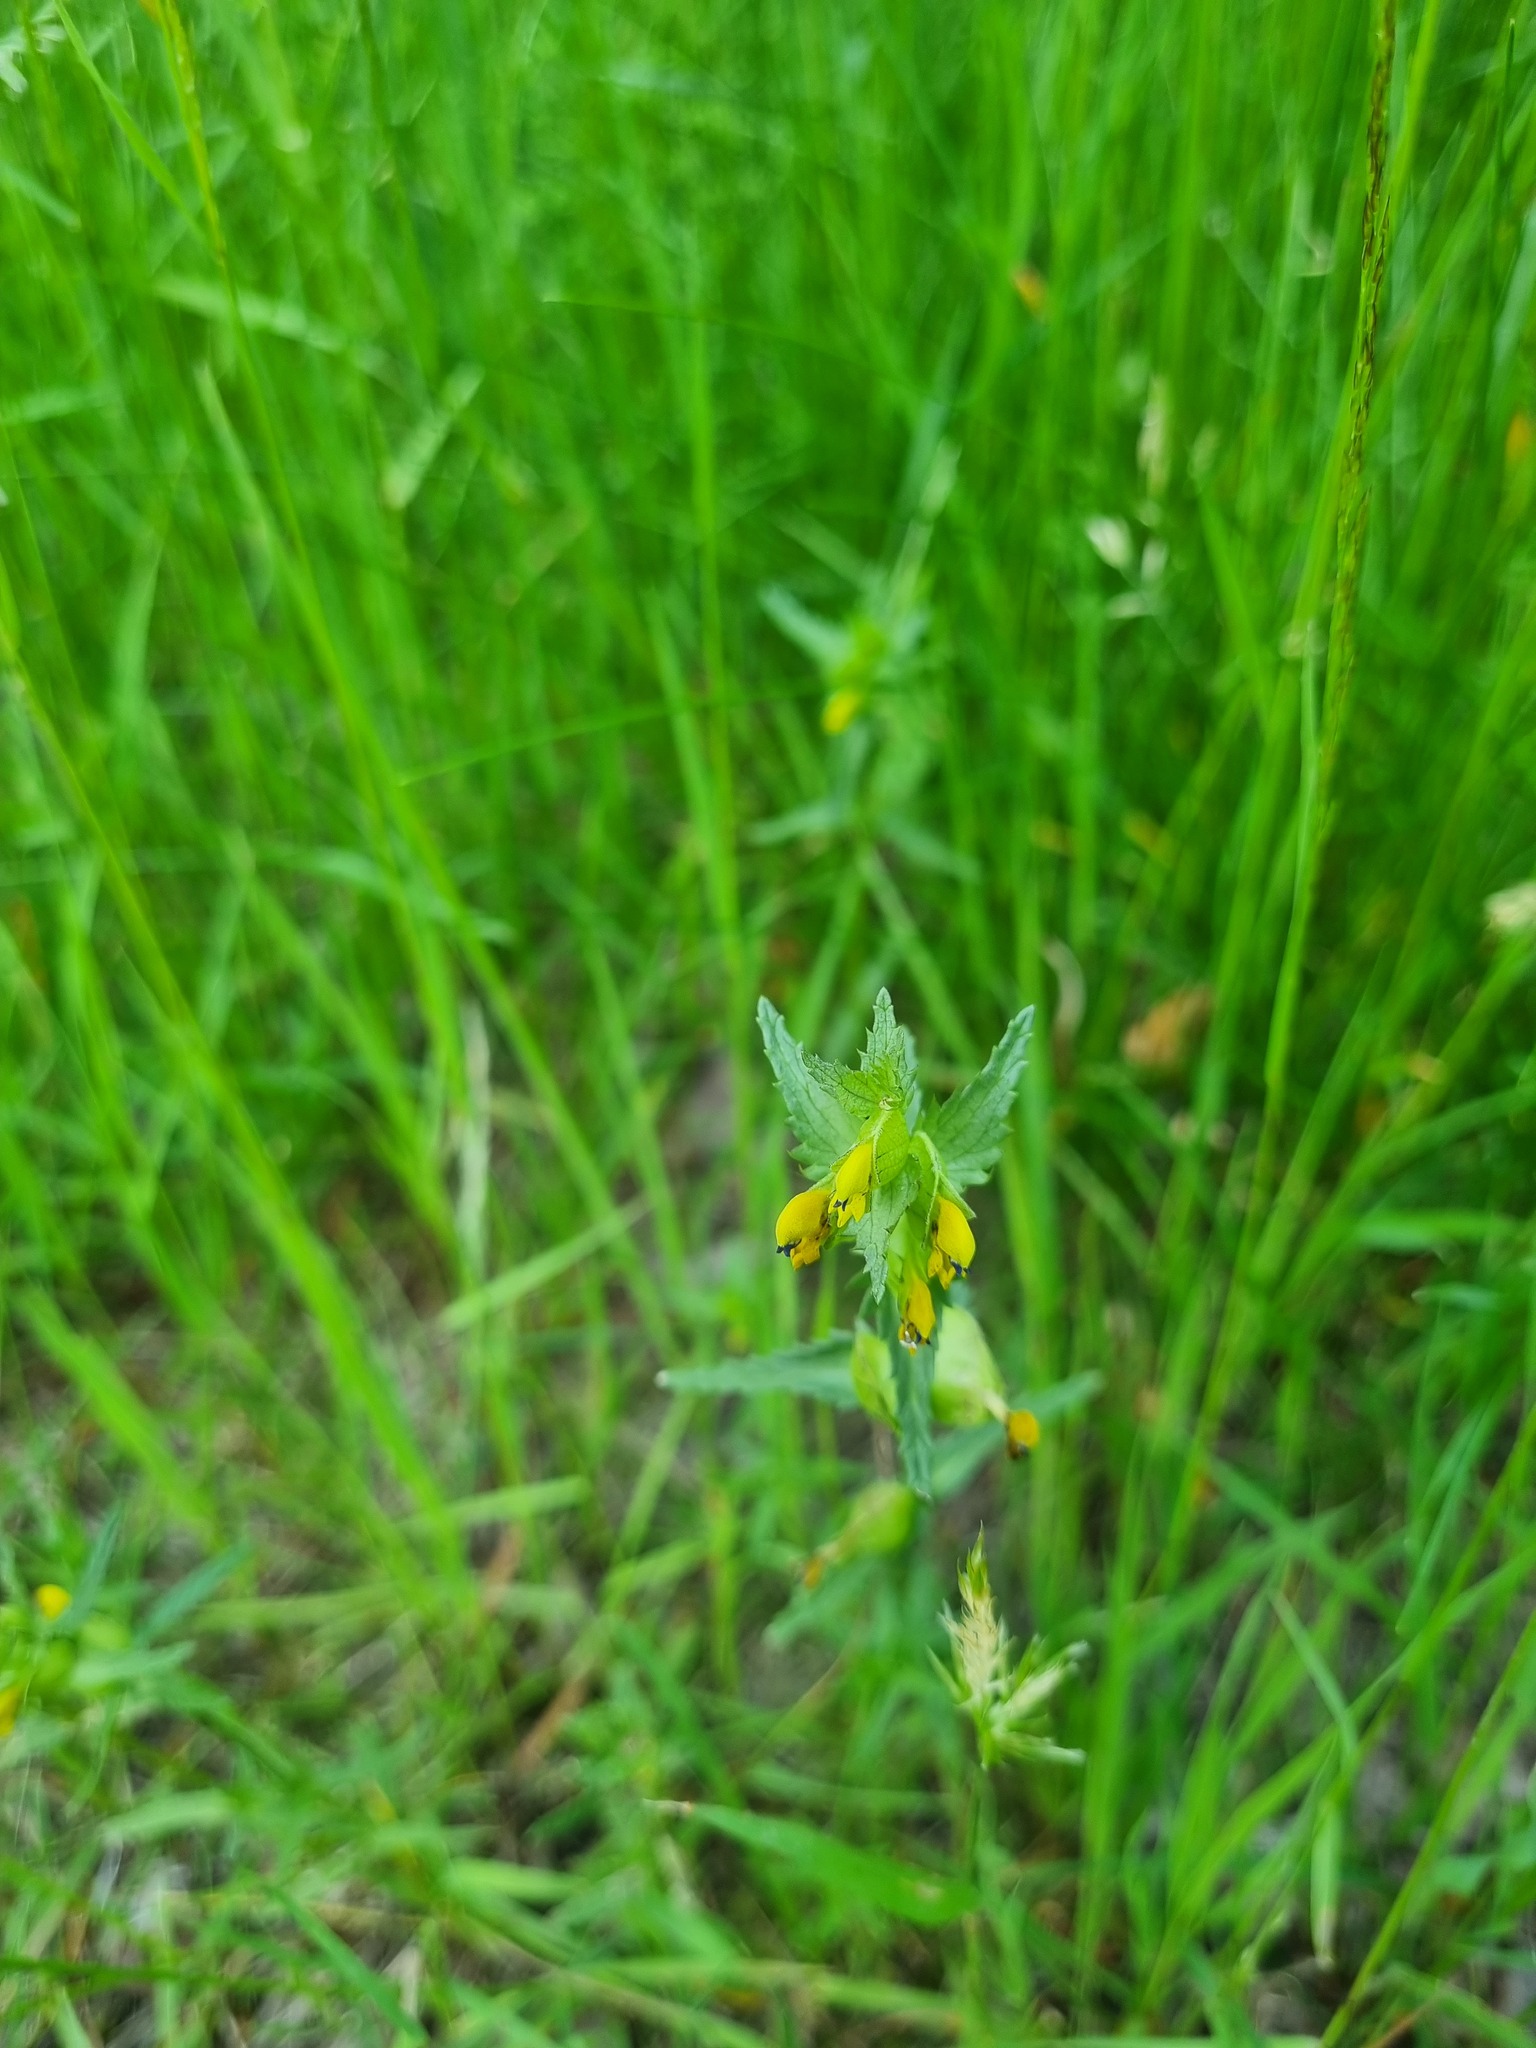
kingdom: Plantae
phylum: Tracheophyta
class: Magnoliopsida
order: Lamiales
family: Orobanchaceae
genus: Rhinanthus
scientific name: Rhinanthus minor
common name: Yellow-rattle
